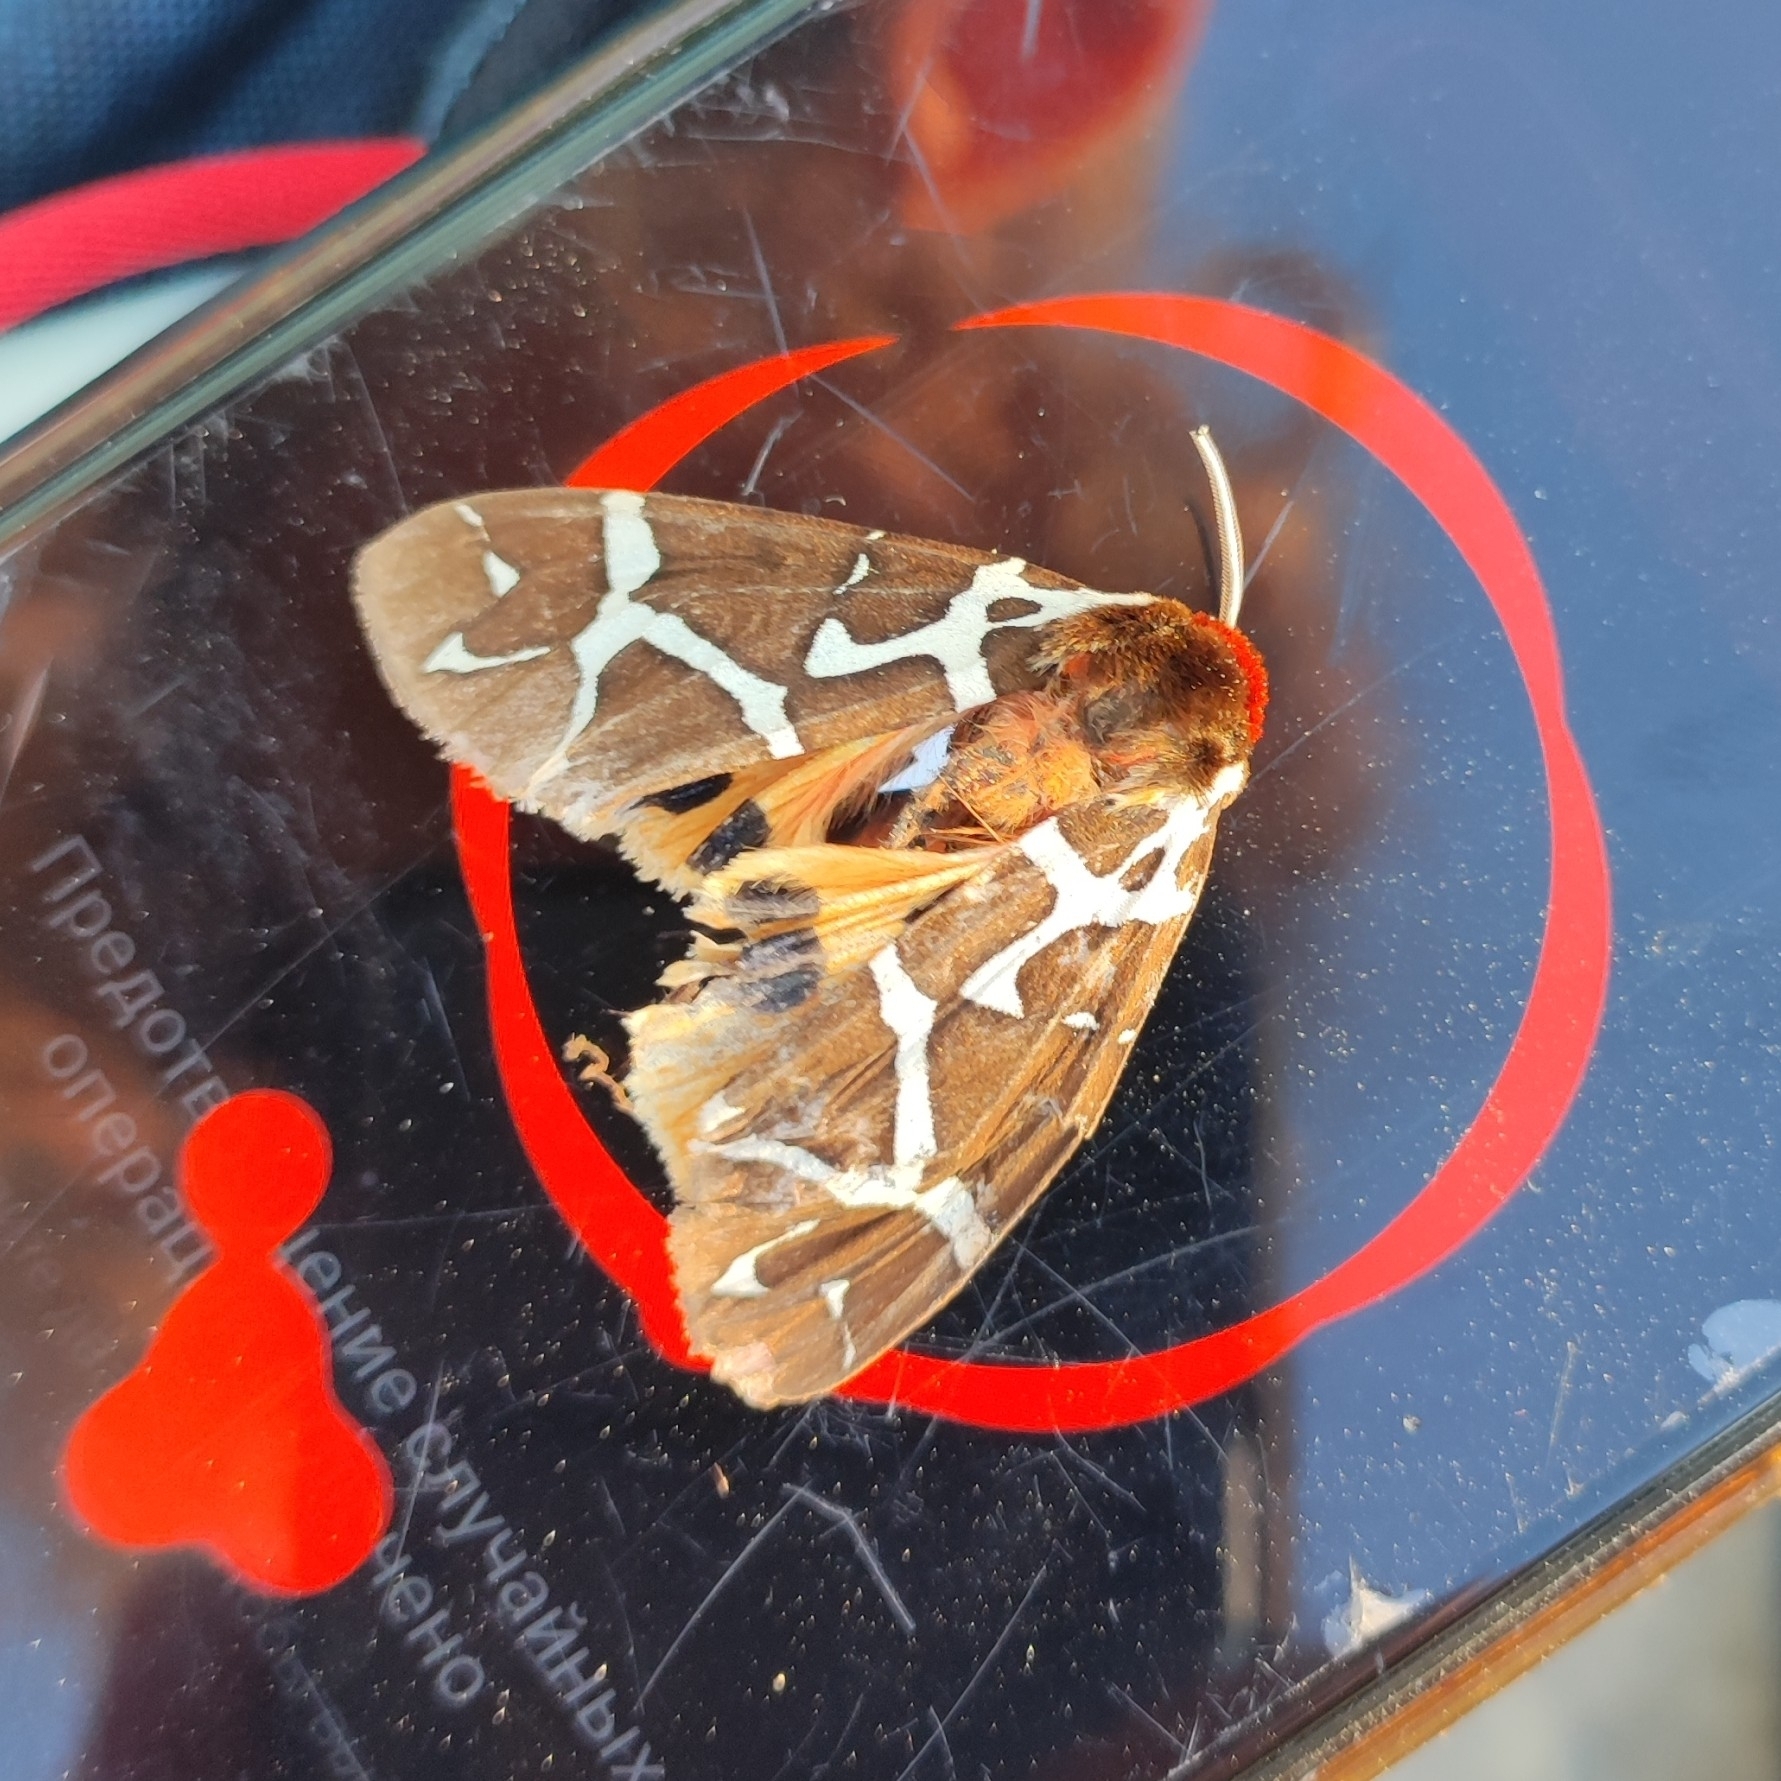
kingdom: Animalia
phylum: Arthropoda
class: Insecta
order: Lepidoptera
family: Erebidae
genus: Arctia
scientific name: Arctia caja
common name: Garden tiger
